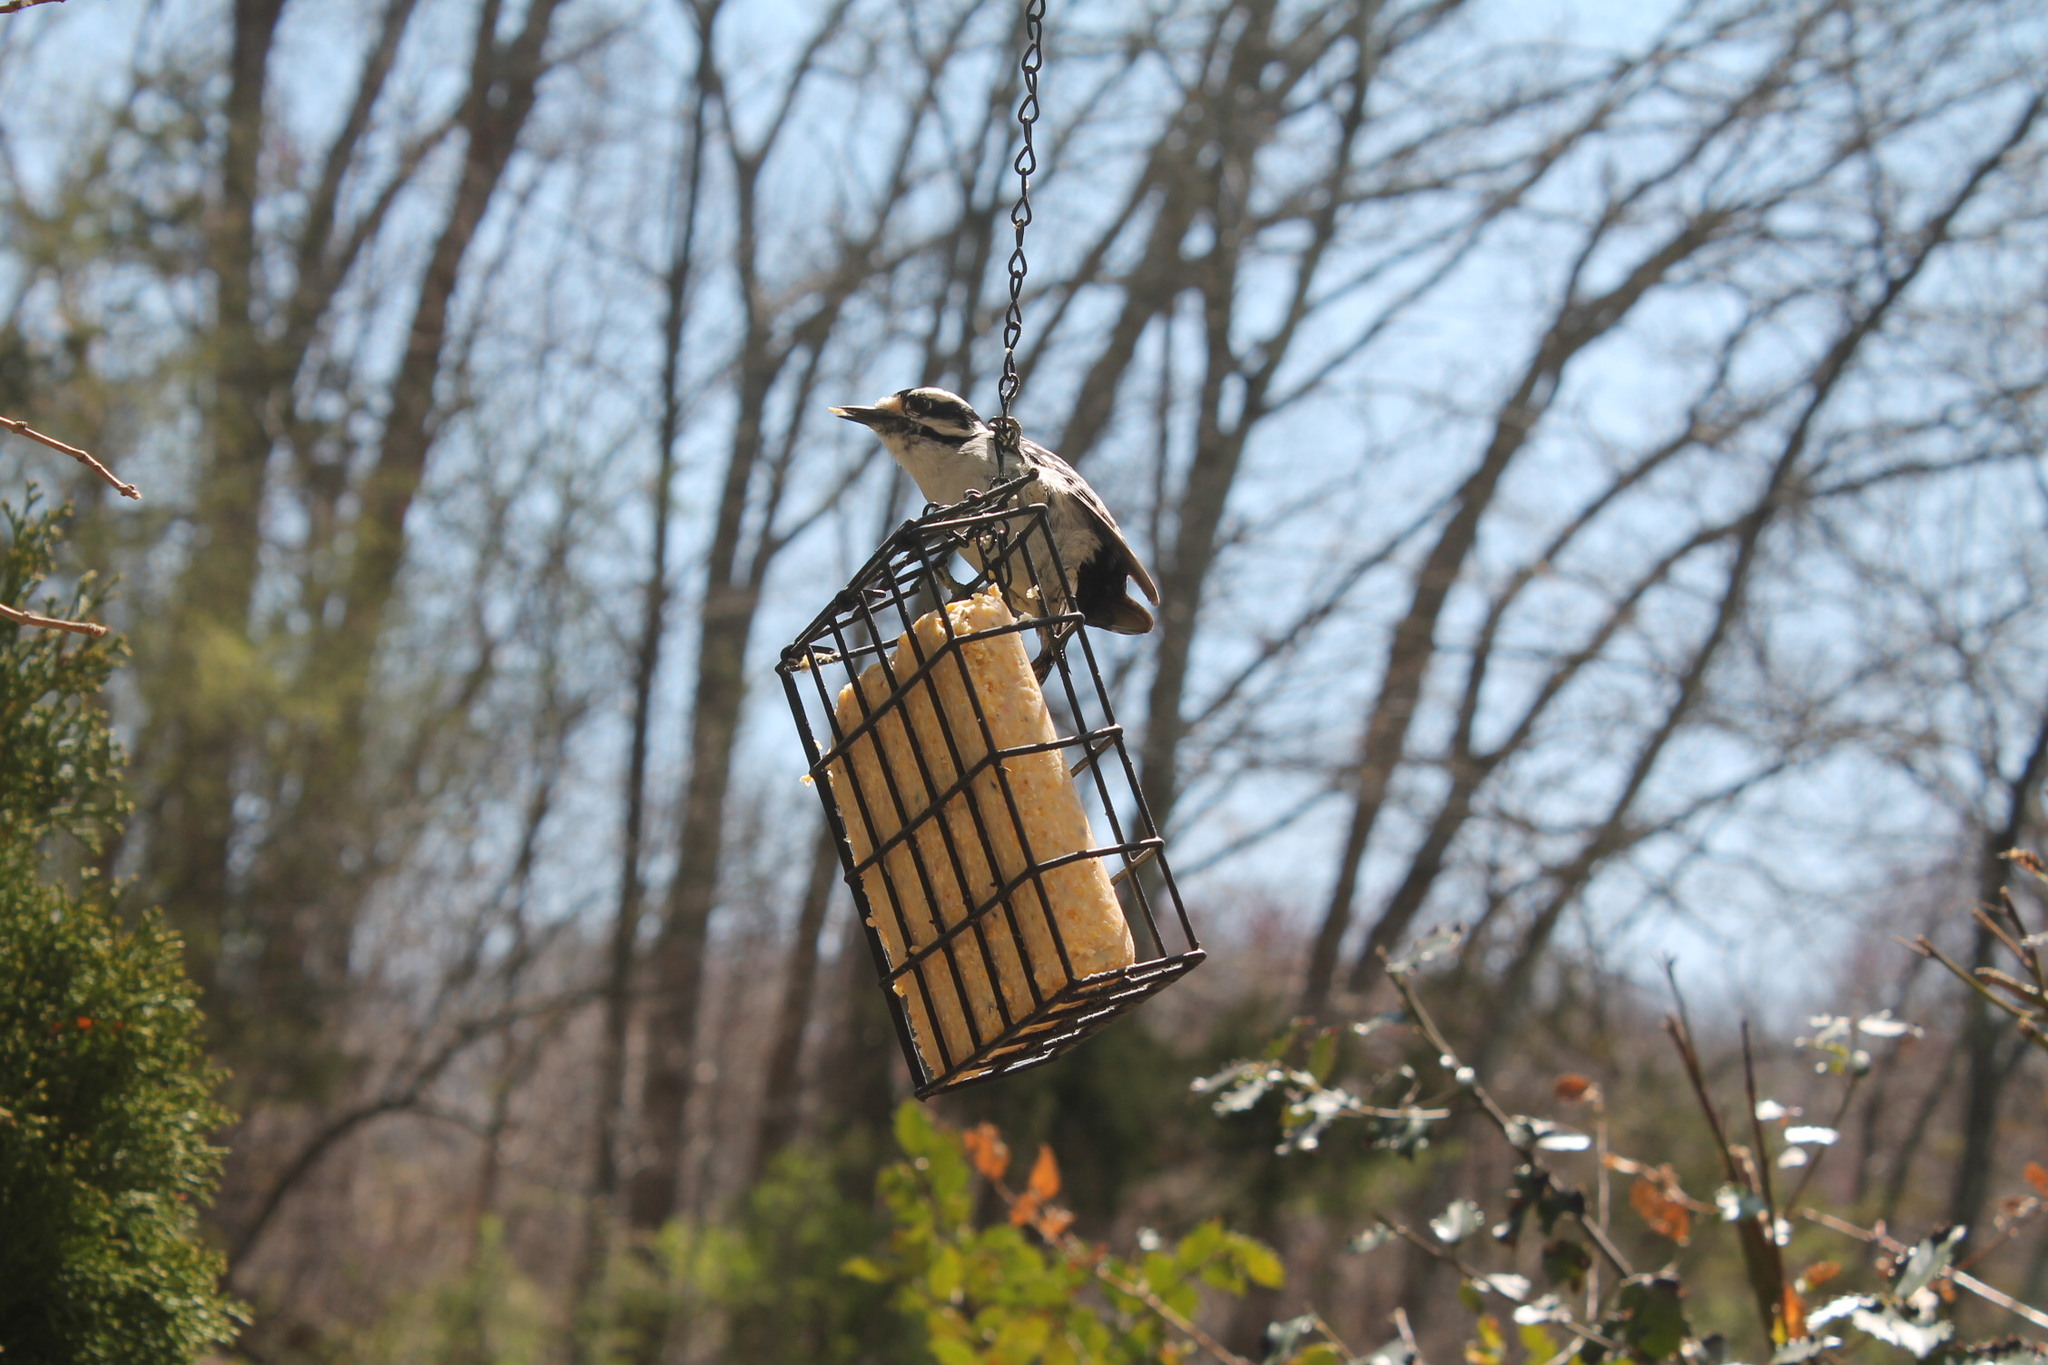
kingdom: Animalia
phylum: Chordata
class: Aves
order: Piciformes
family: Picidae
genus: Dryobates
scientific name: Dryobates pubescens
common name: Downy woodpecker
